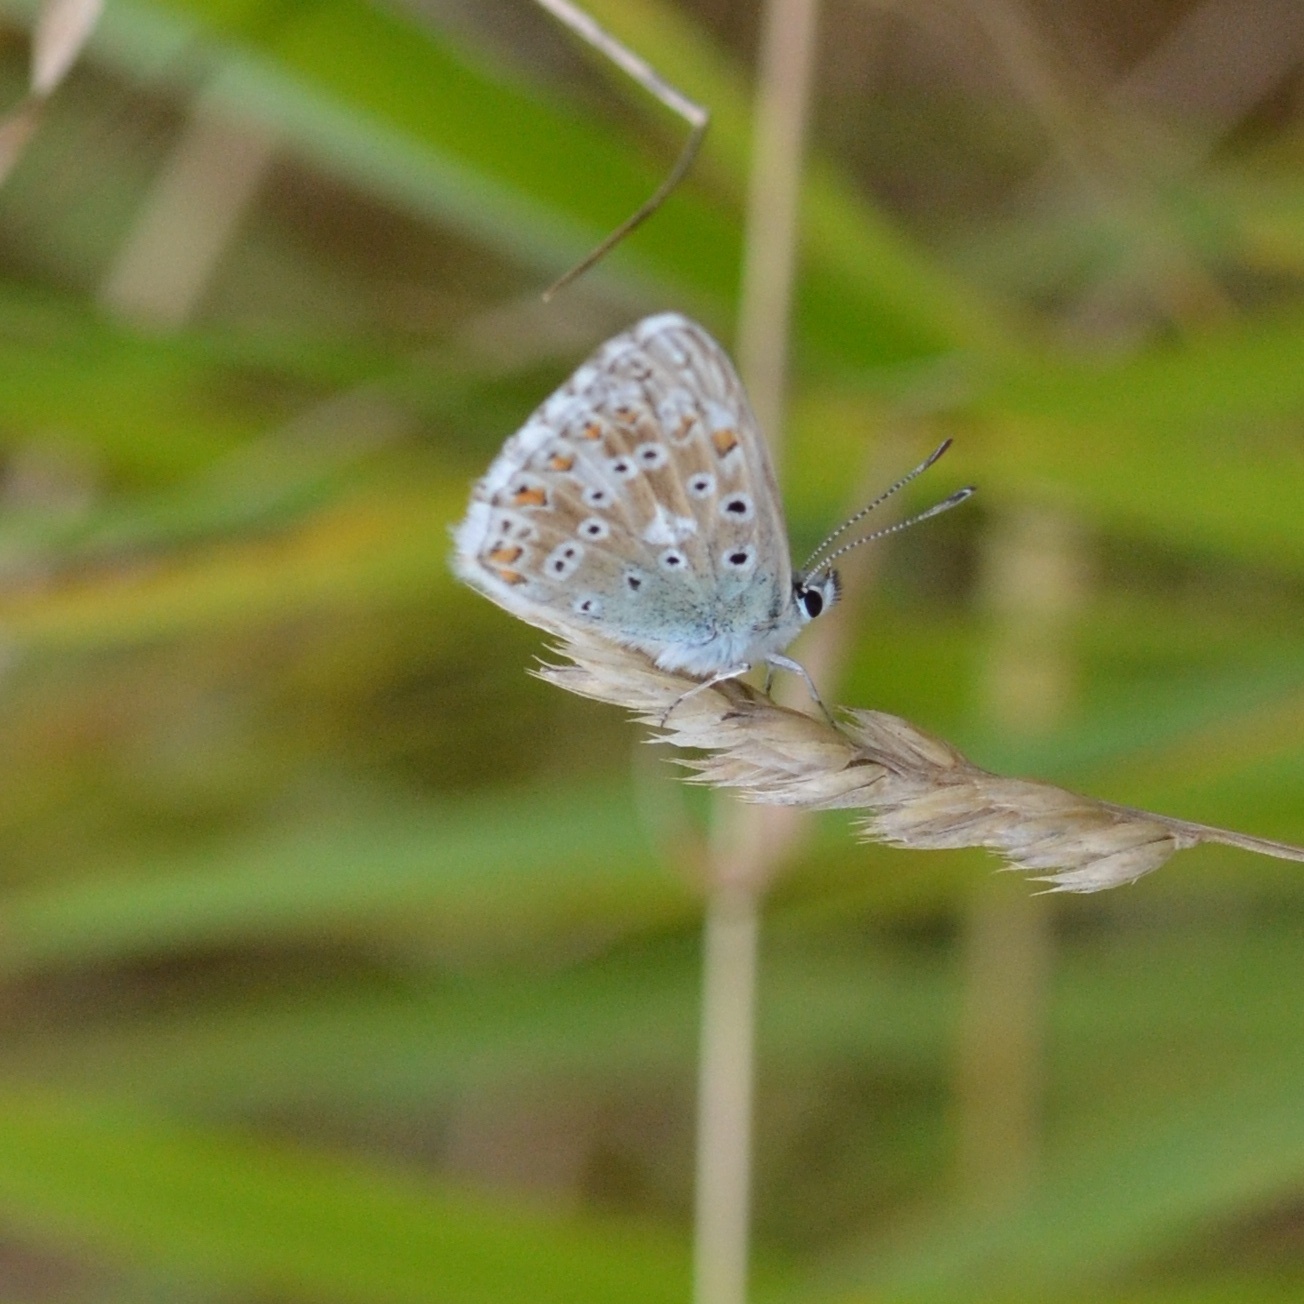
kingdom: Animalia
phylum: Arthropoda
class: Insecta
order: Lepidoptera
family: Lycaenidae
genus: Lysandra
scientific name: Lysandra bellargus
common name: Adonis blue
